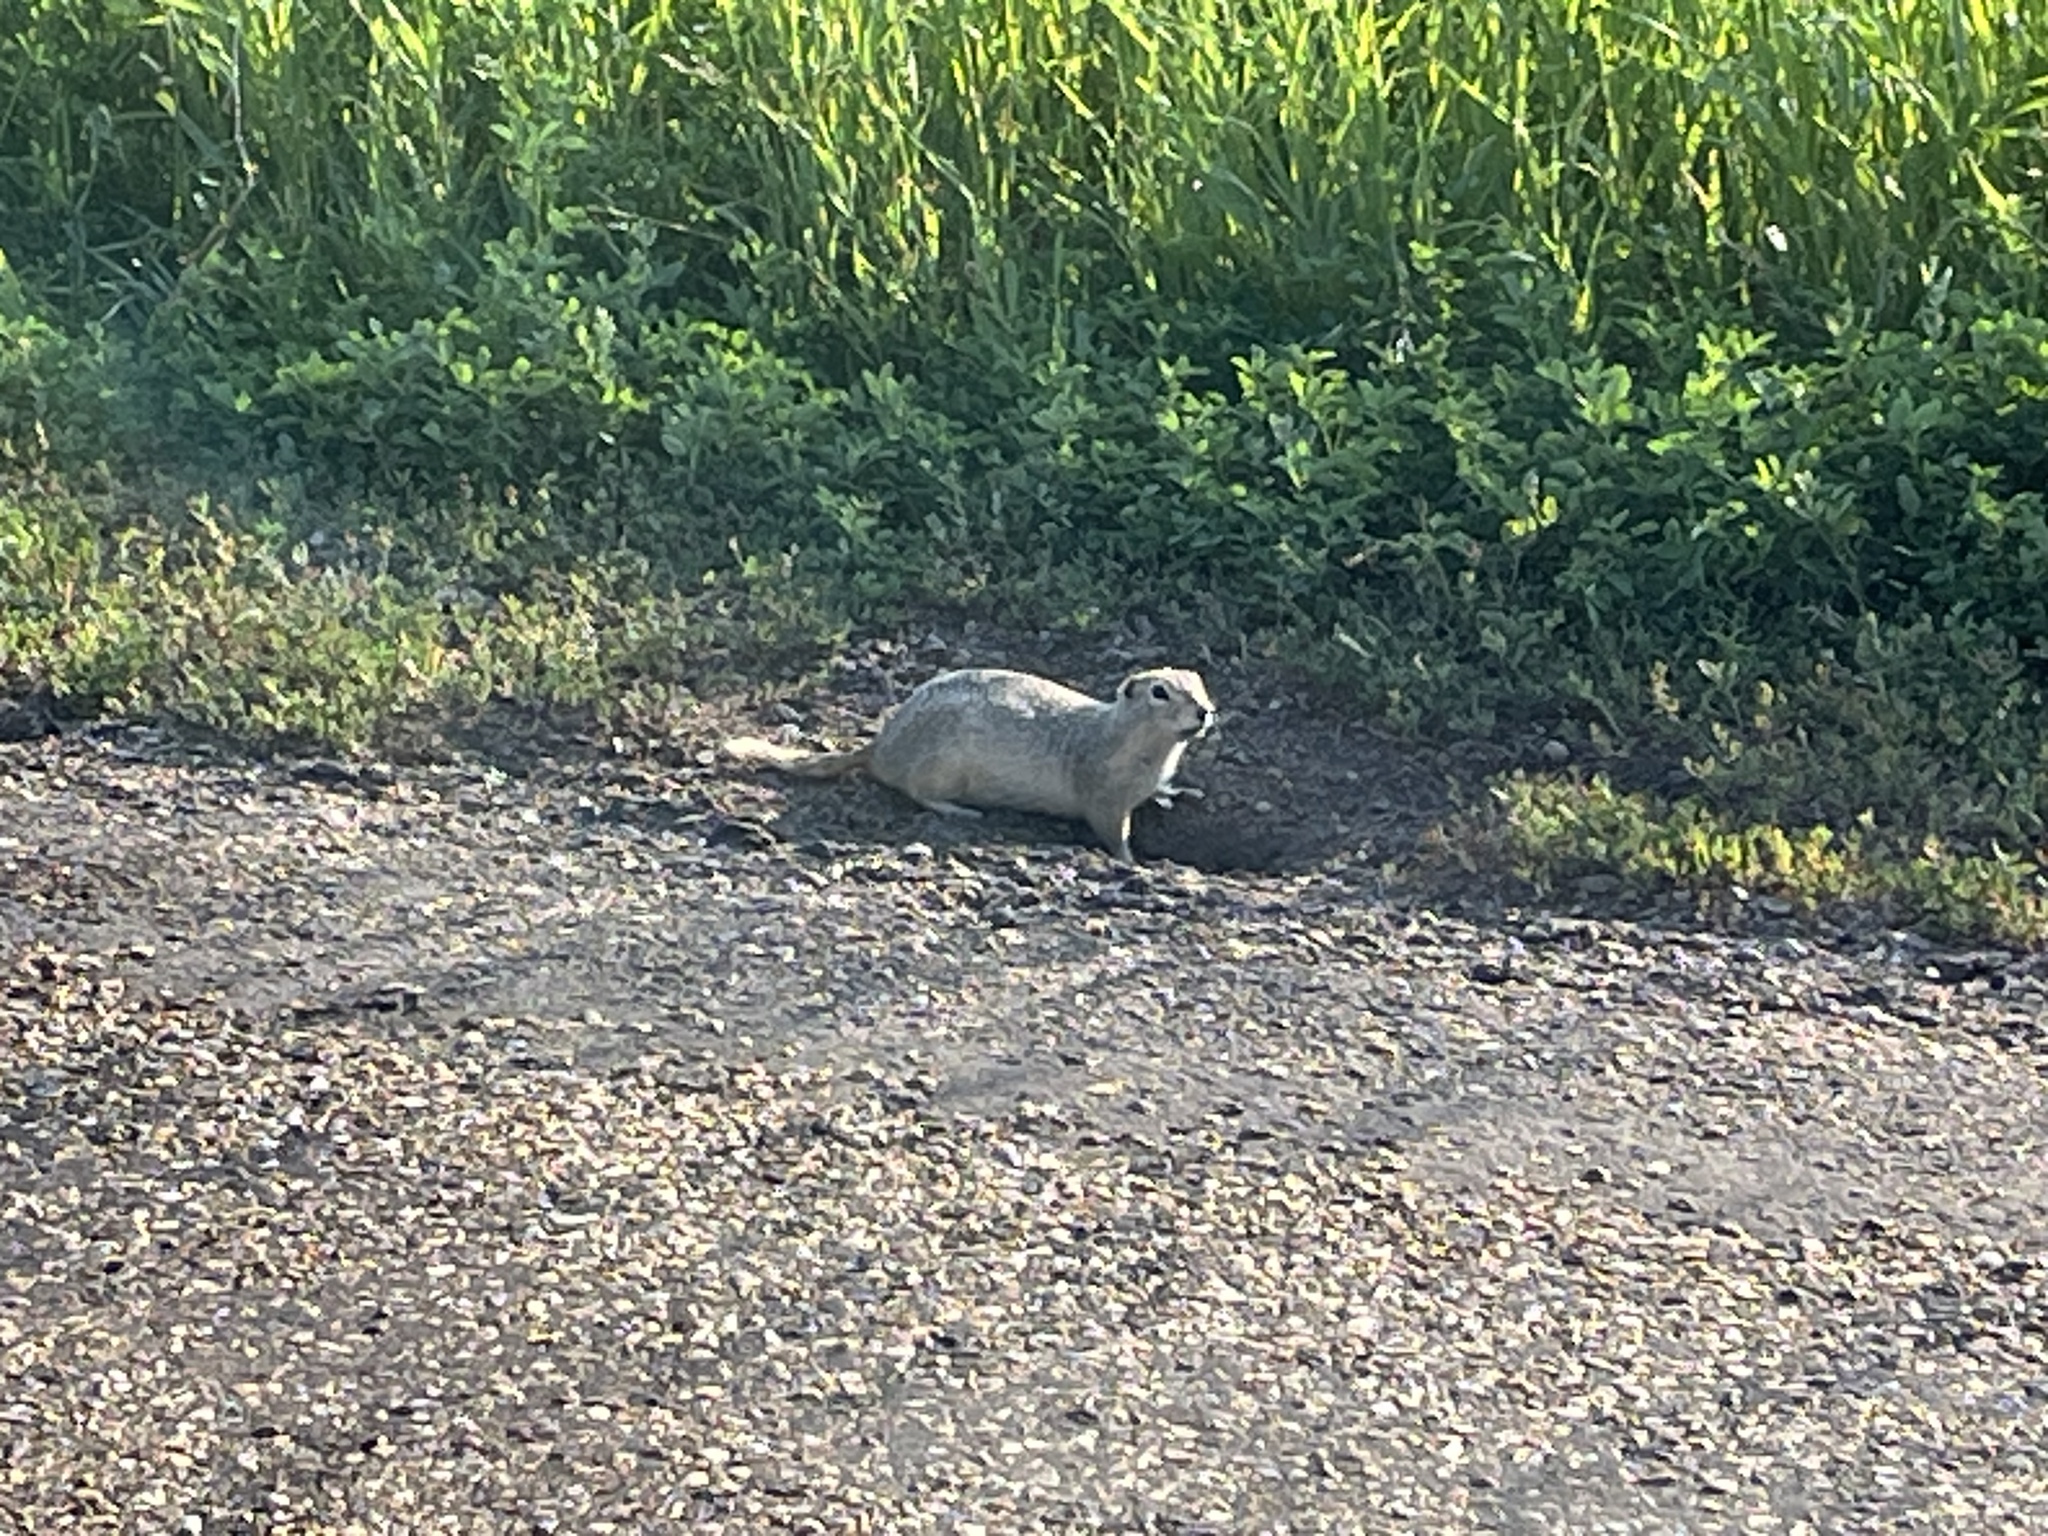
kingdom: Animalia
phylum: Chordata
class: Mammalia
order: Rodentia
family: Sciuridae
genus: Urocitellus
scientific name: Urocitellus richardsonii
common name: Richardson's ground squirrel
